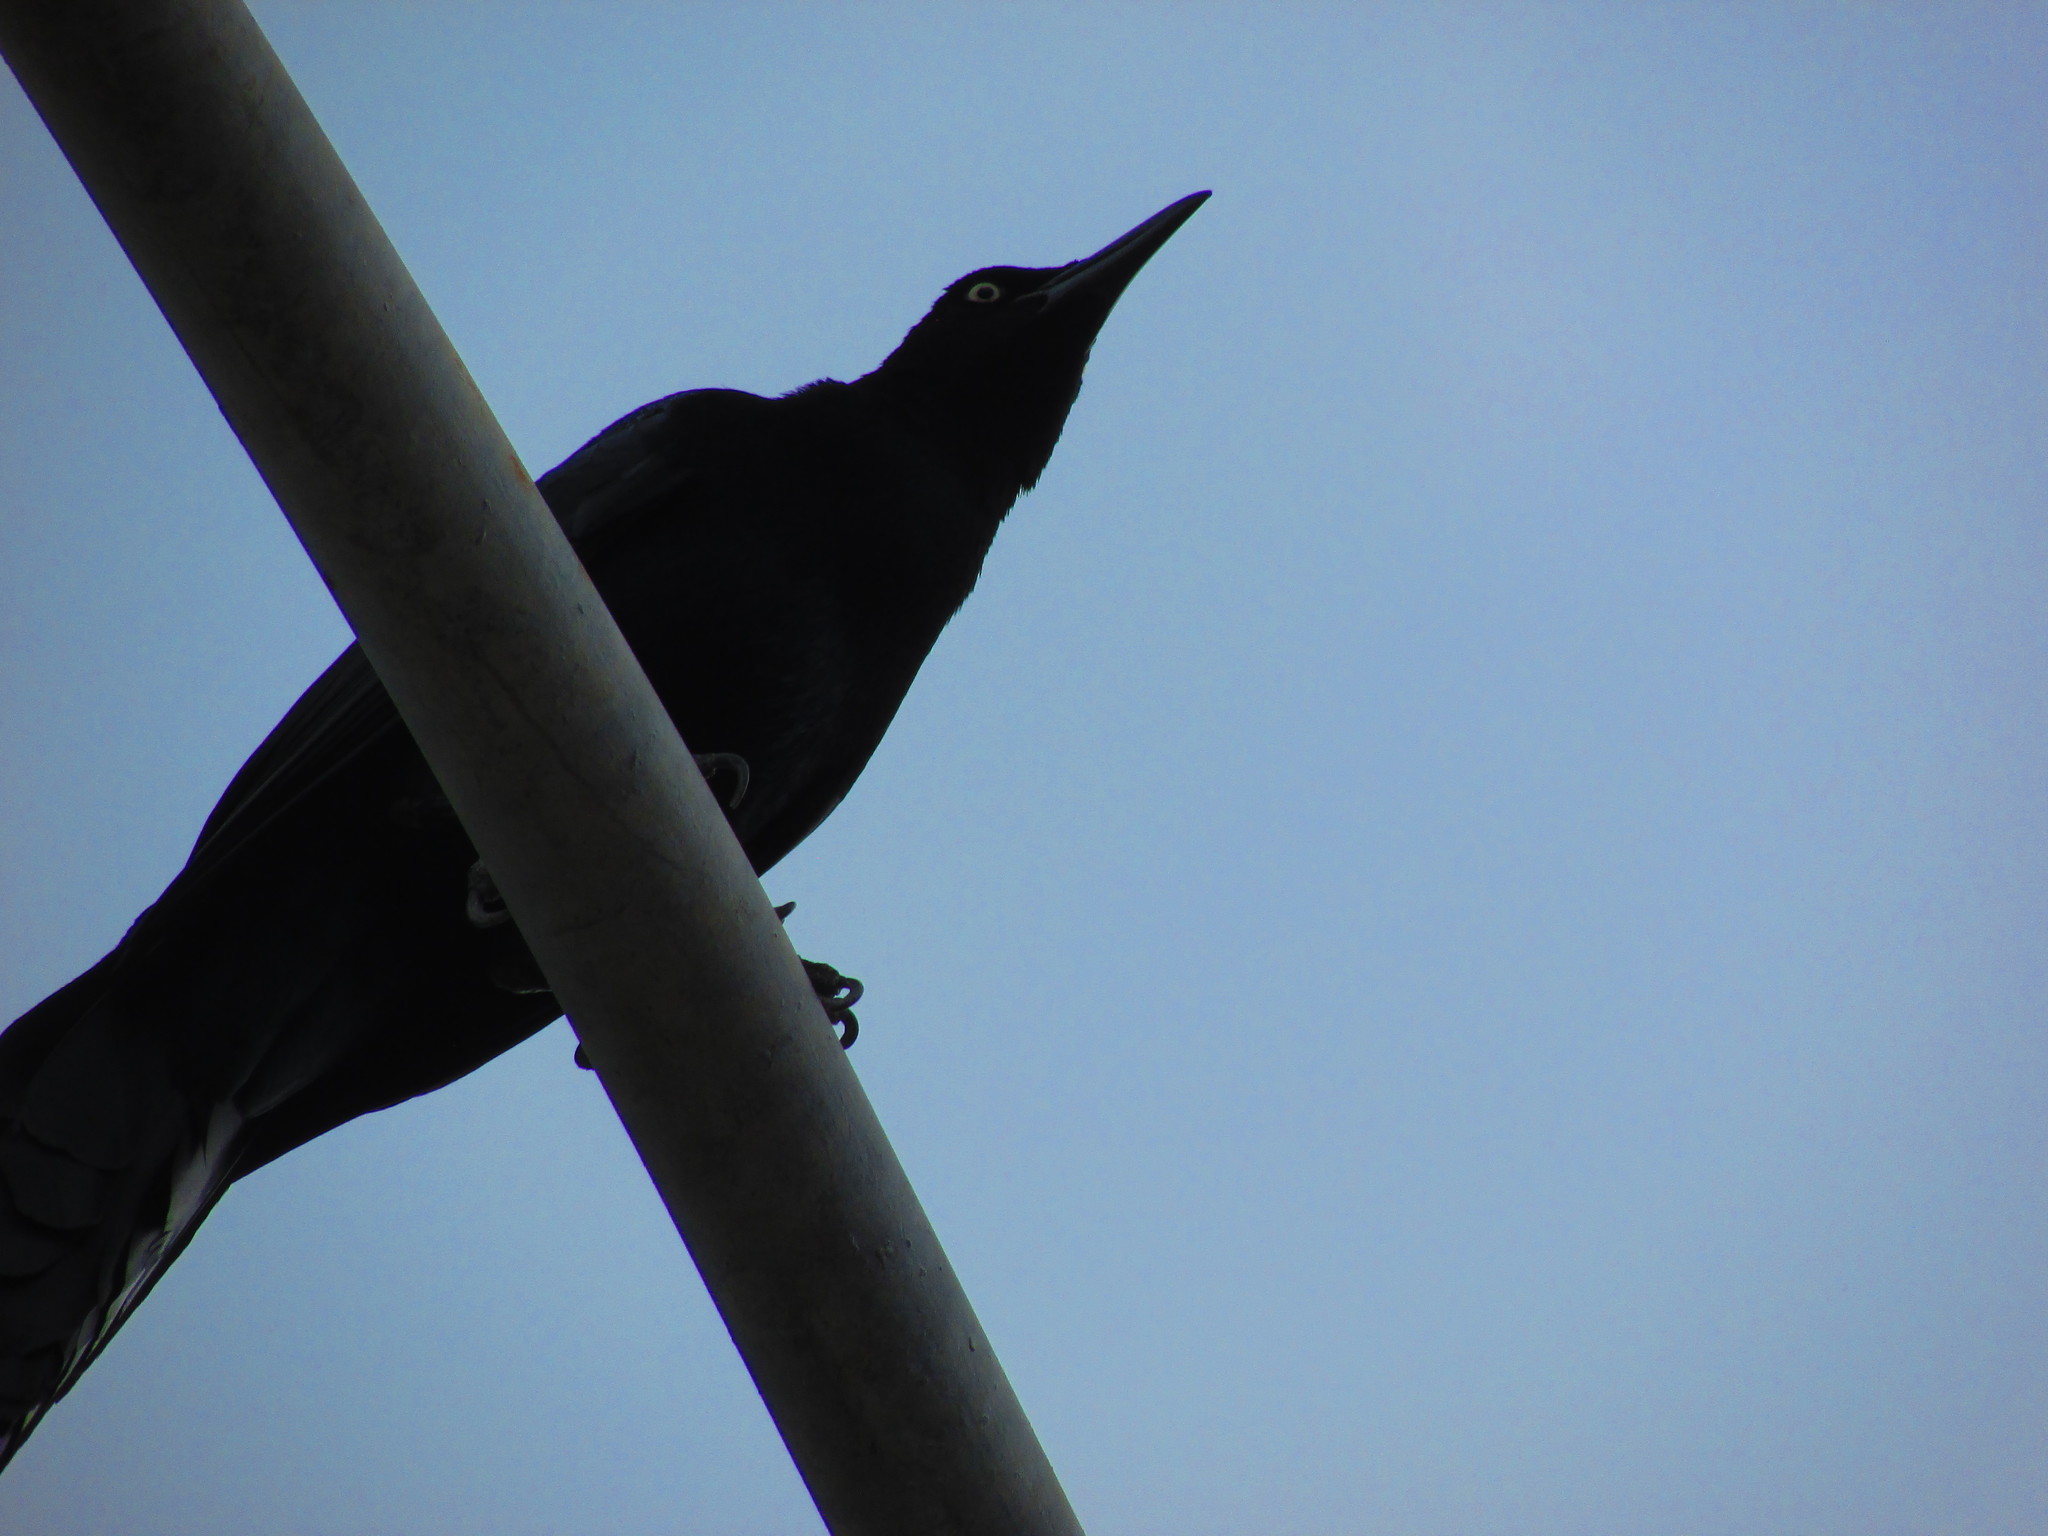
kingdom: Animalia
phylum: Chordata
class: Aves
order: Passeriformes
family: Icteridae
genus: Quiscalus
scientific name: Quiscalus mexicanus
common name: Great-tailed grackle
